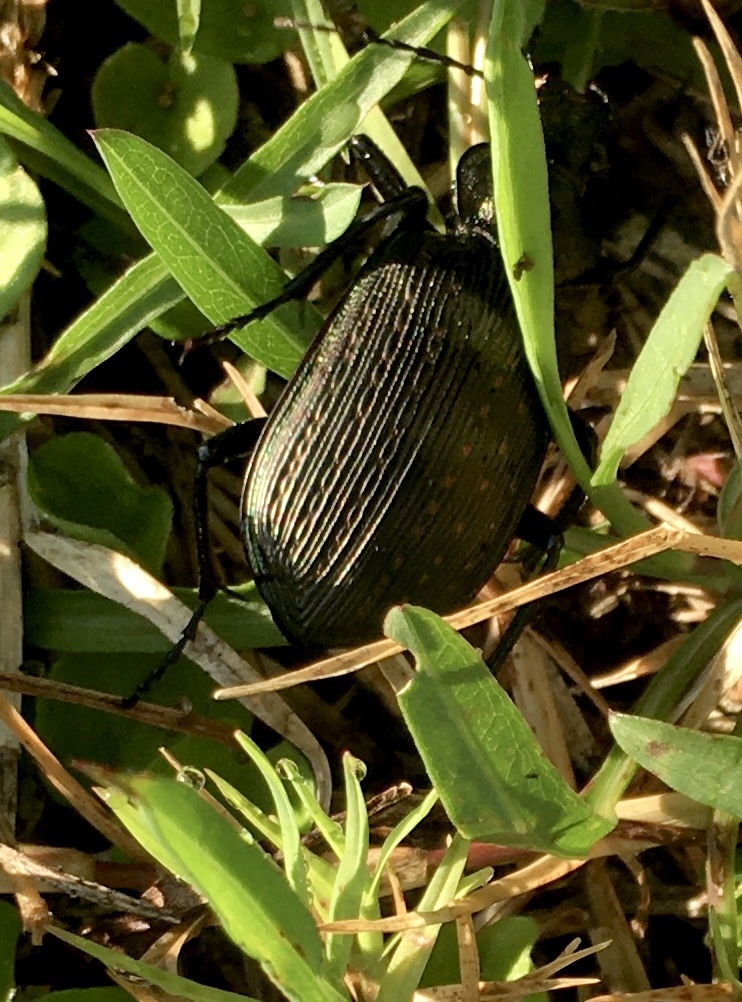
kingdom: Animalia
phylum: Arthropoda
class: Insecta
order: Coleoptera
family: Carabidae
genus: Calosoma
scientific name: Calosoma sayi
